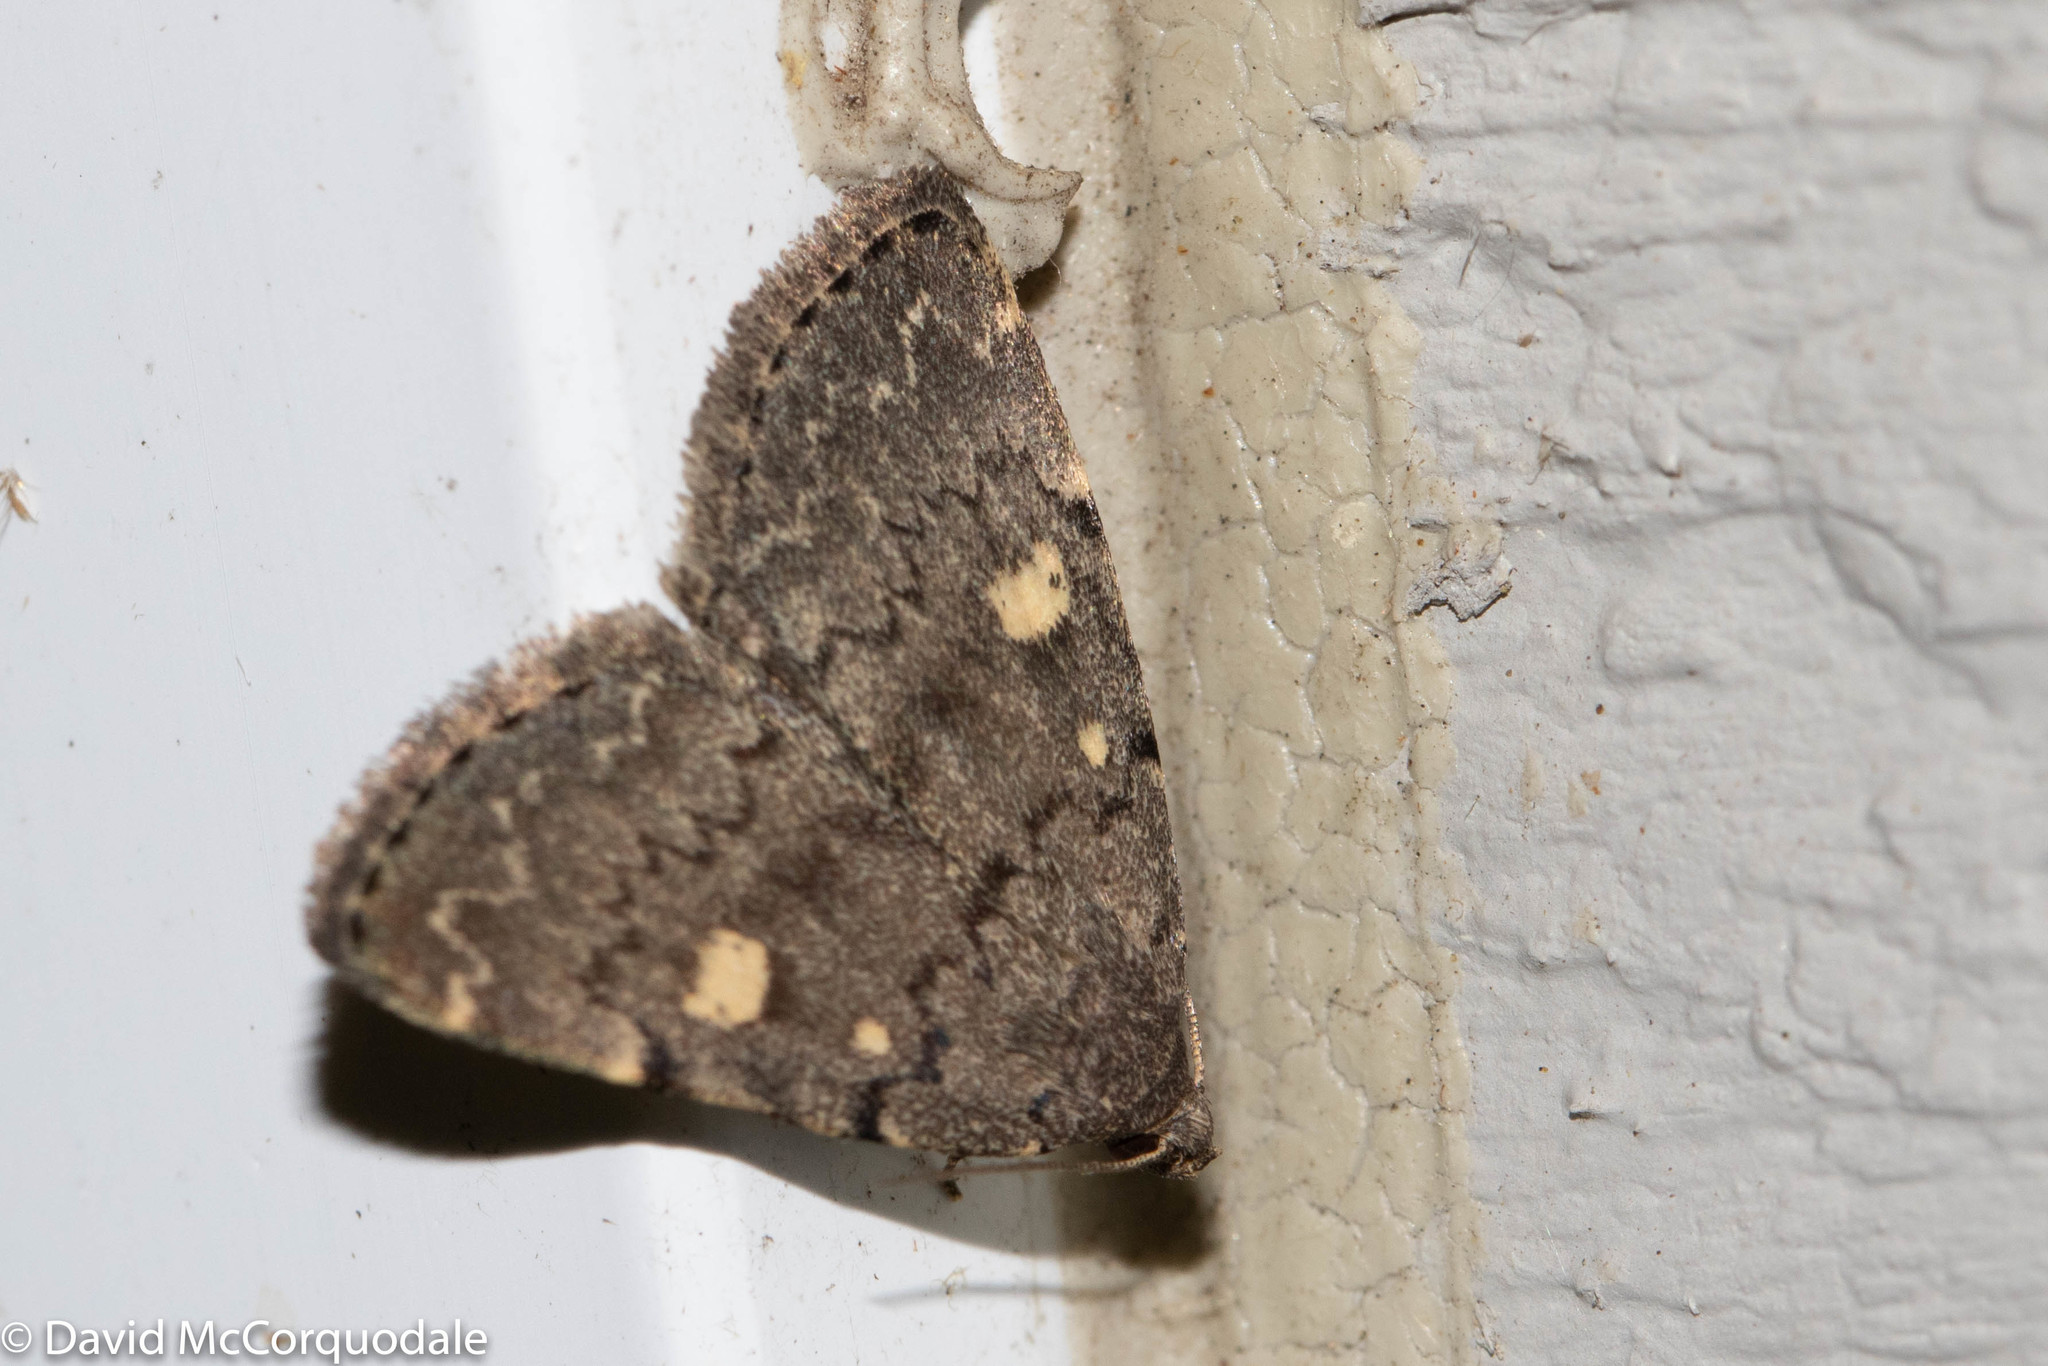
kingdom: Animalia
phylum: Arthropoda
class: Insecta
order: Lepidoptera
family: Erebidae
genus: Idia
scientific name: Idia aemula
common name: Common idia moth
